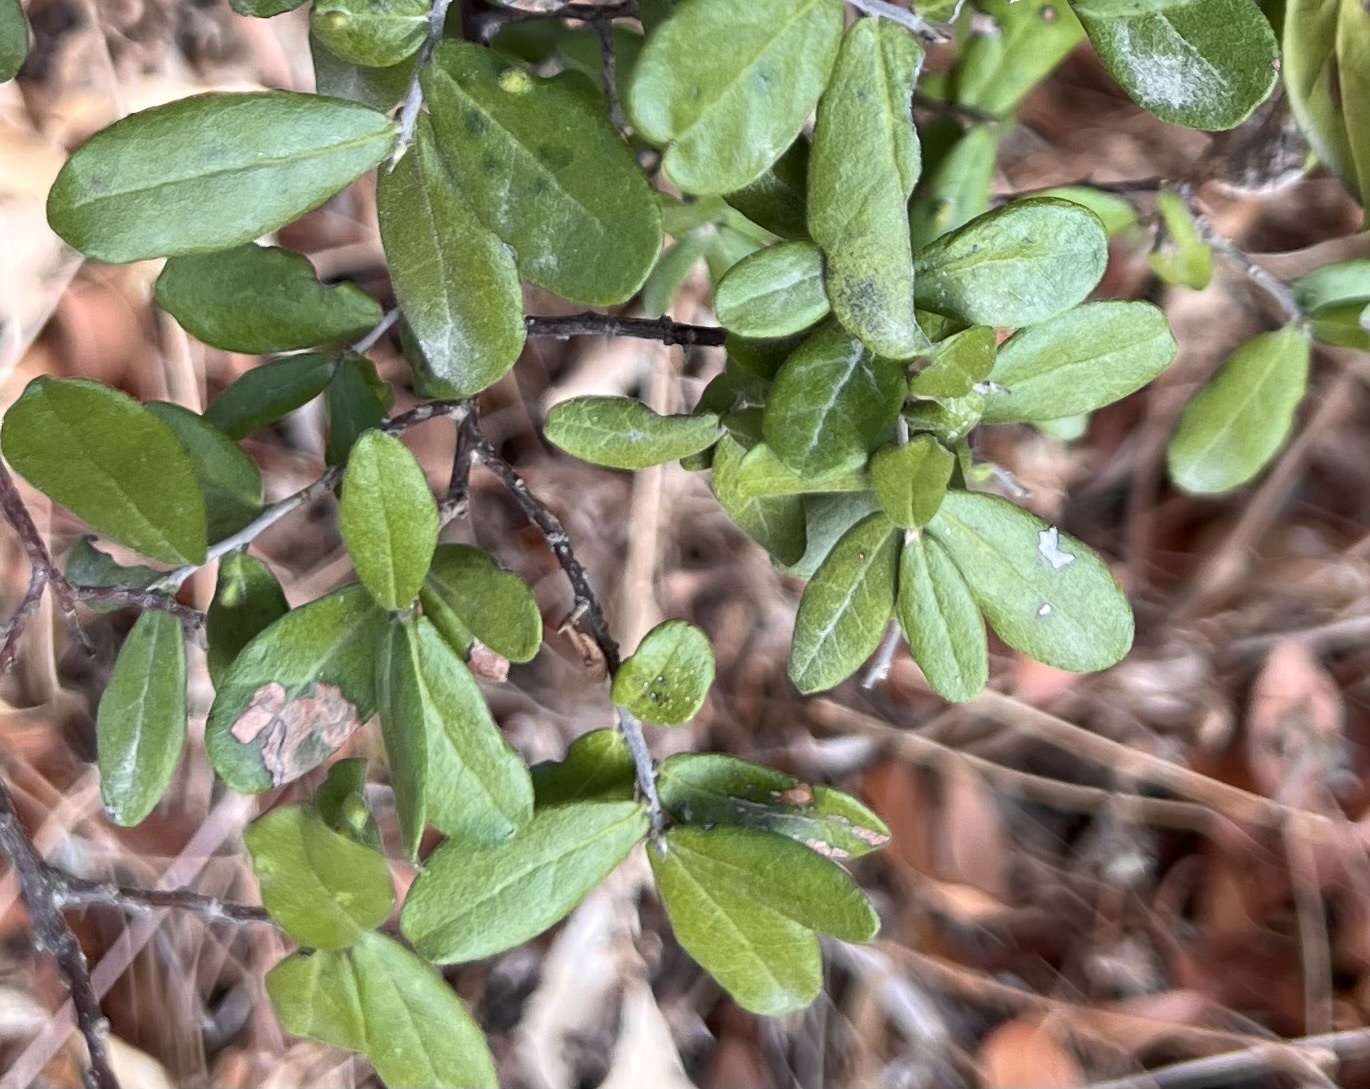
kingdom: Plantae
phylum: Tracheophyta
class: Magnoliopsida
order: Ericales
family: Ebenaceae
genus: Diospyros
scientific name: Diospyros texana
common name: Texas persimmon
